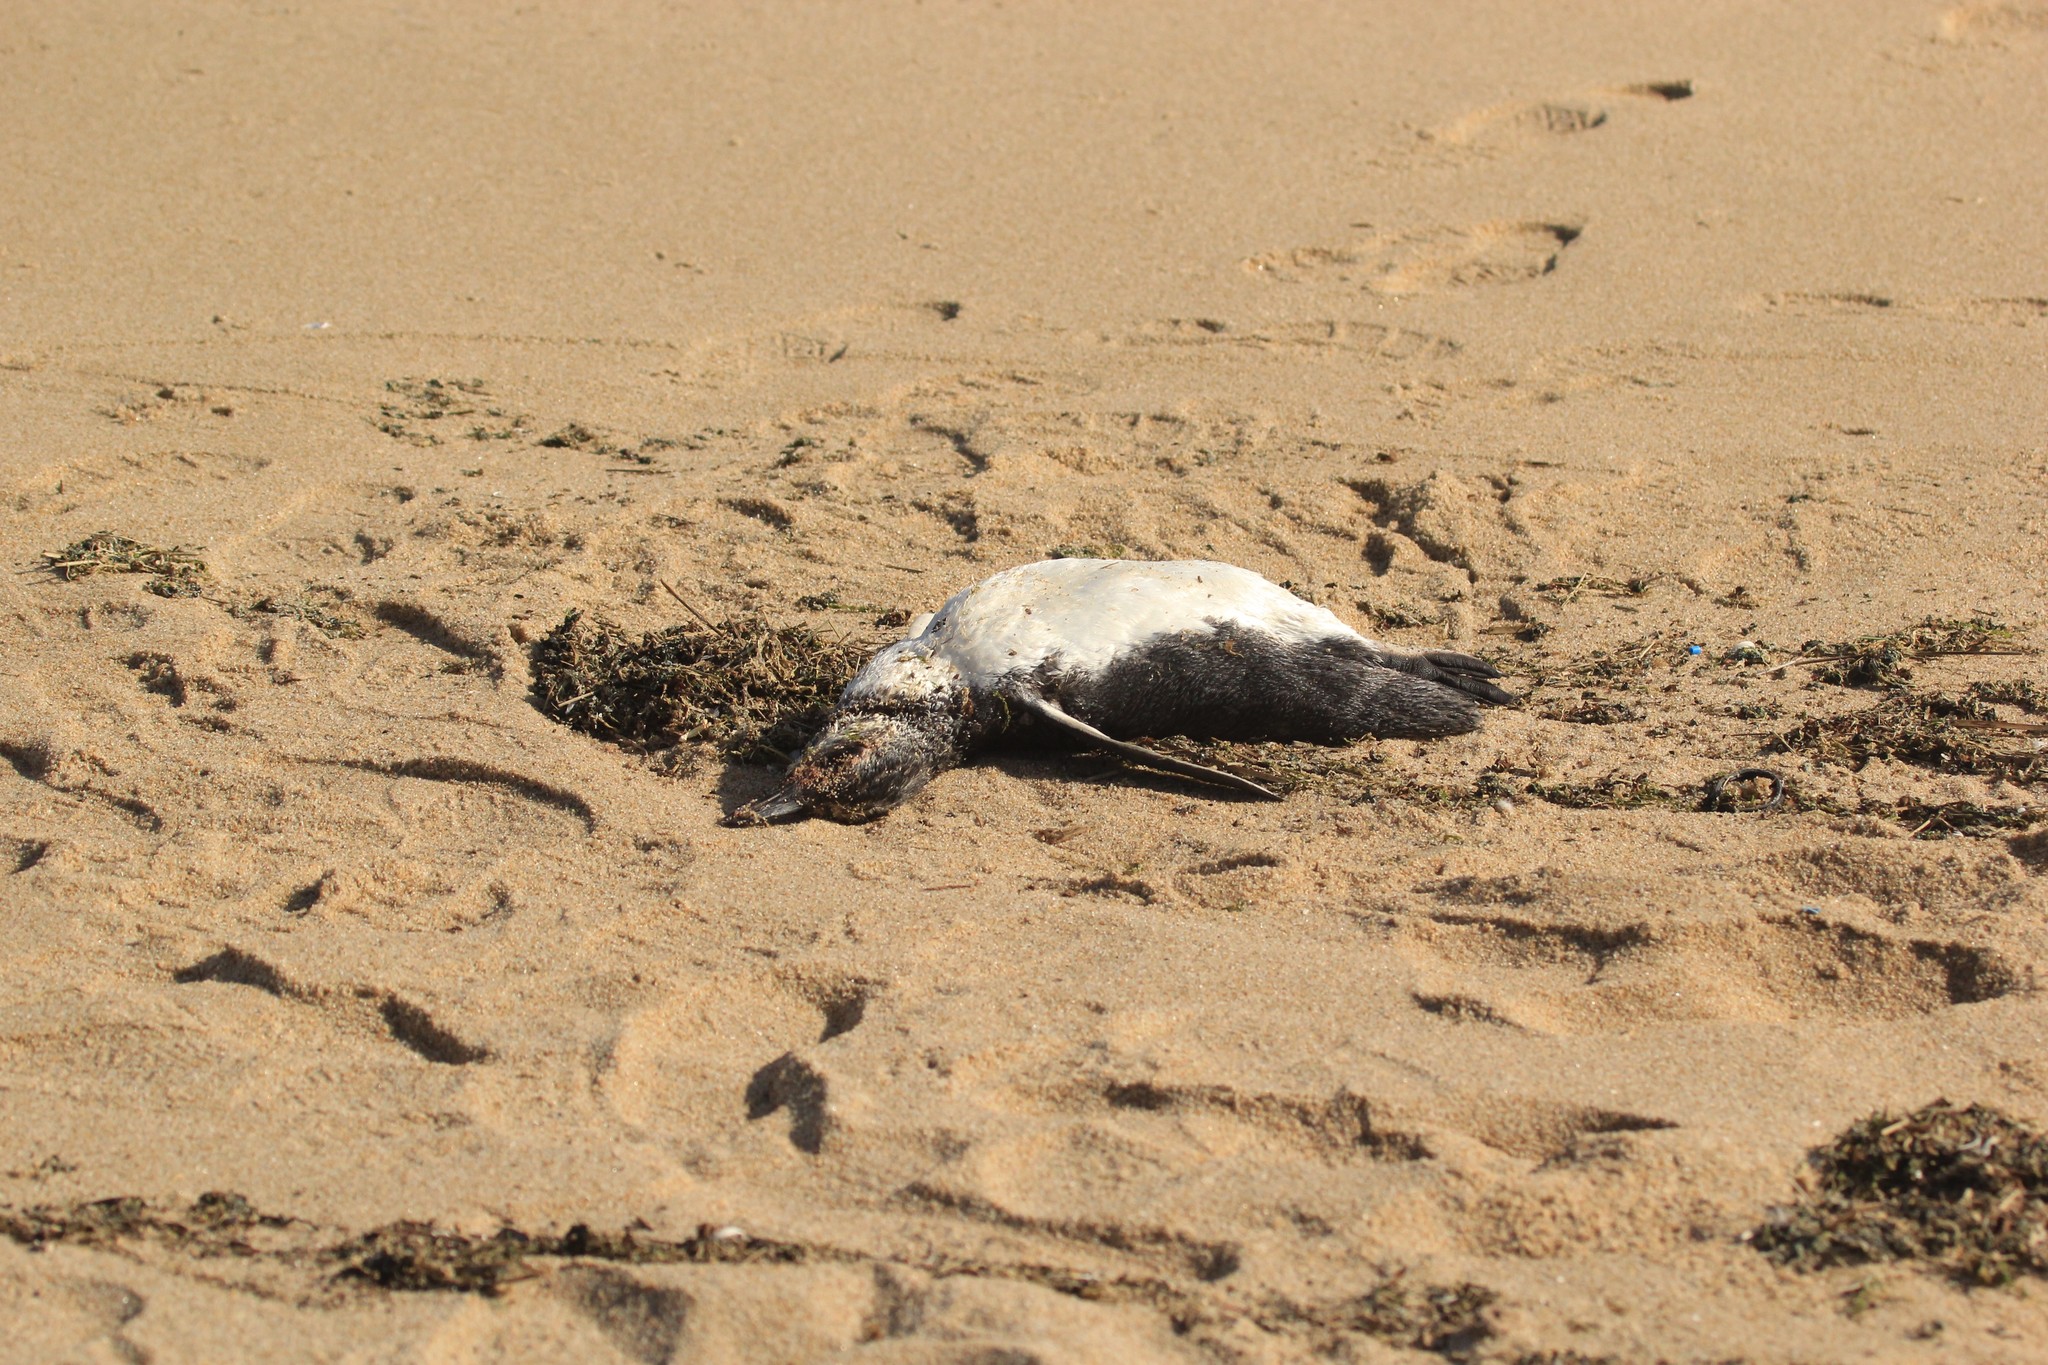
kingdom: Animalia
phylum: Chordata
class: Aves
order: Sphenisciformes
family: Spheniscidae
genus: Spheniscus
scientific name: Spheniscus magellanicus
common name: Magellanic penguin
